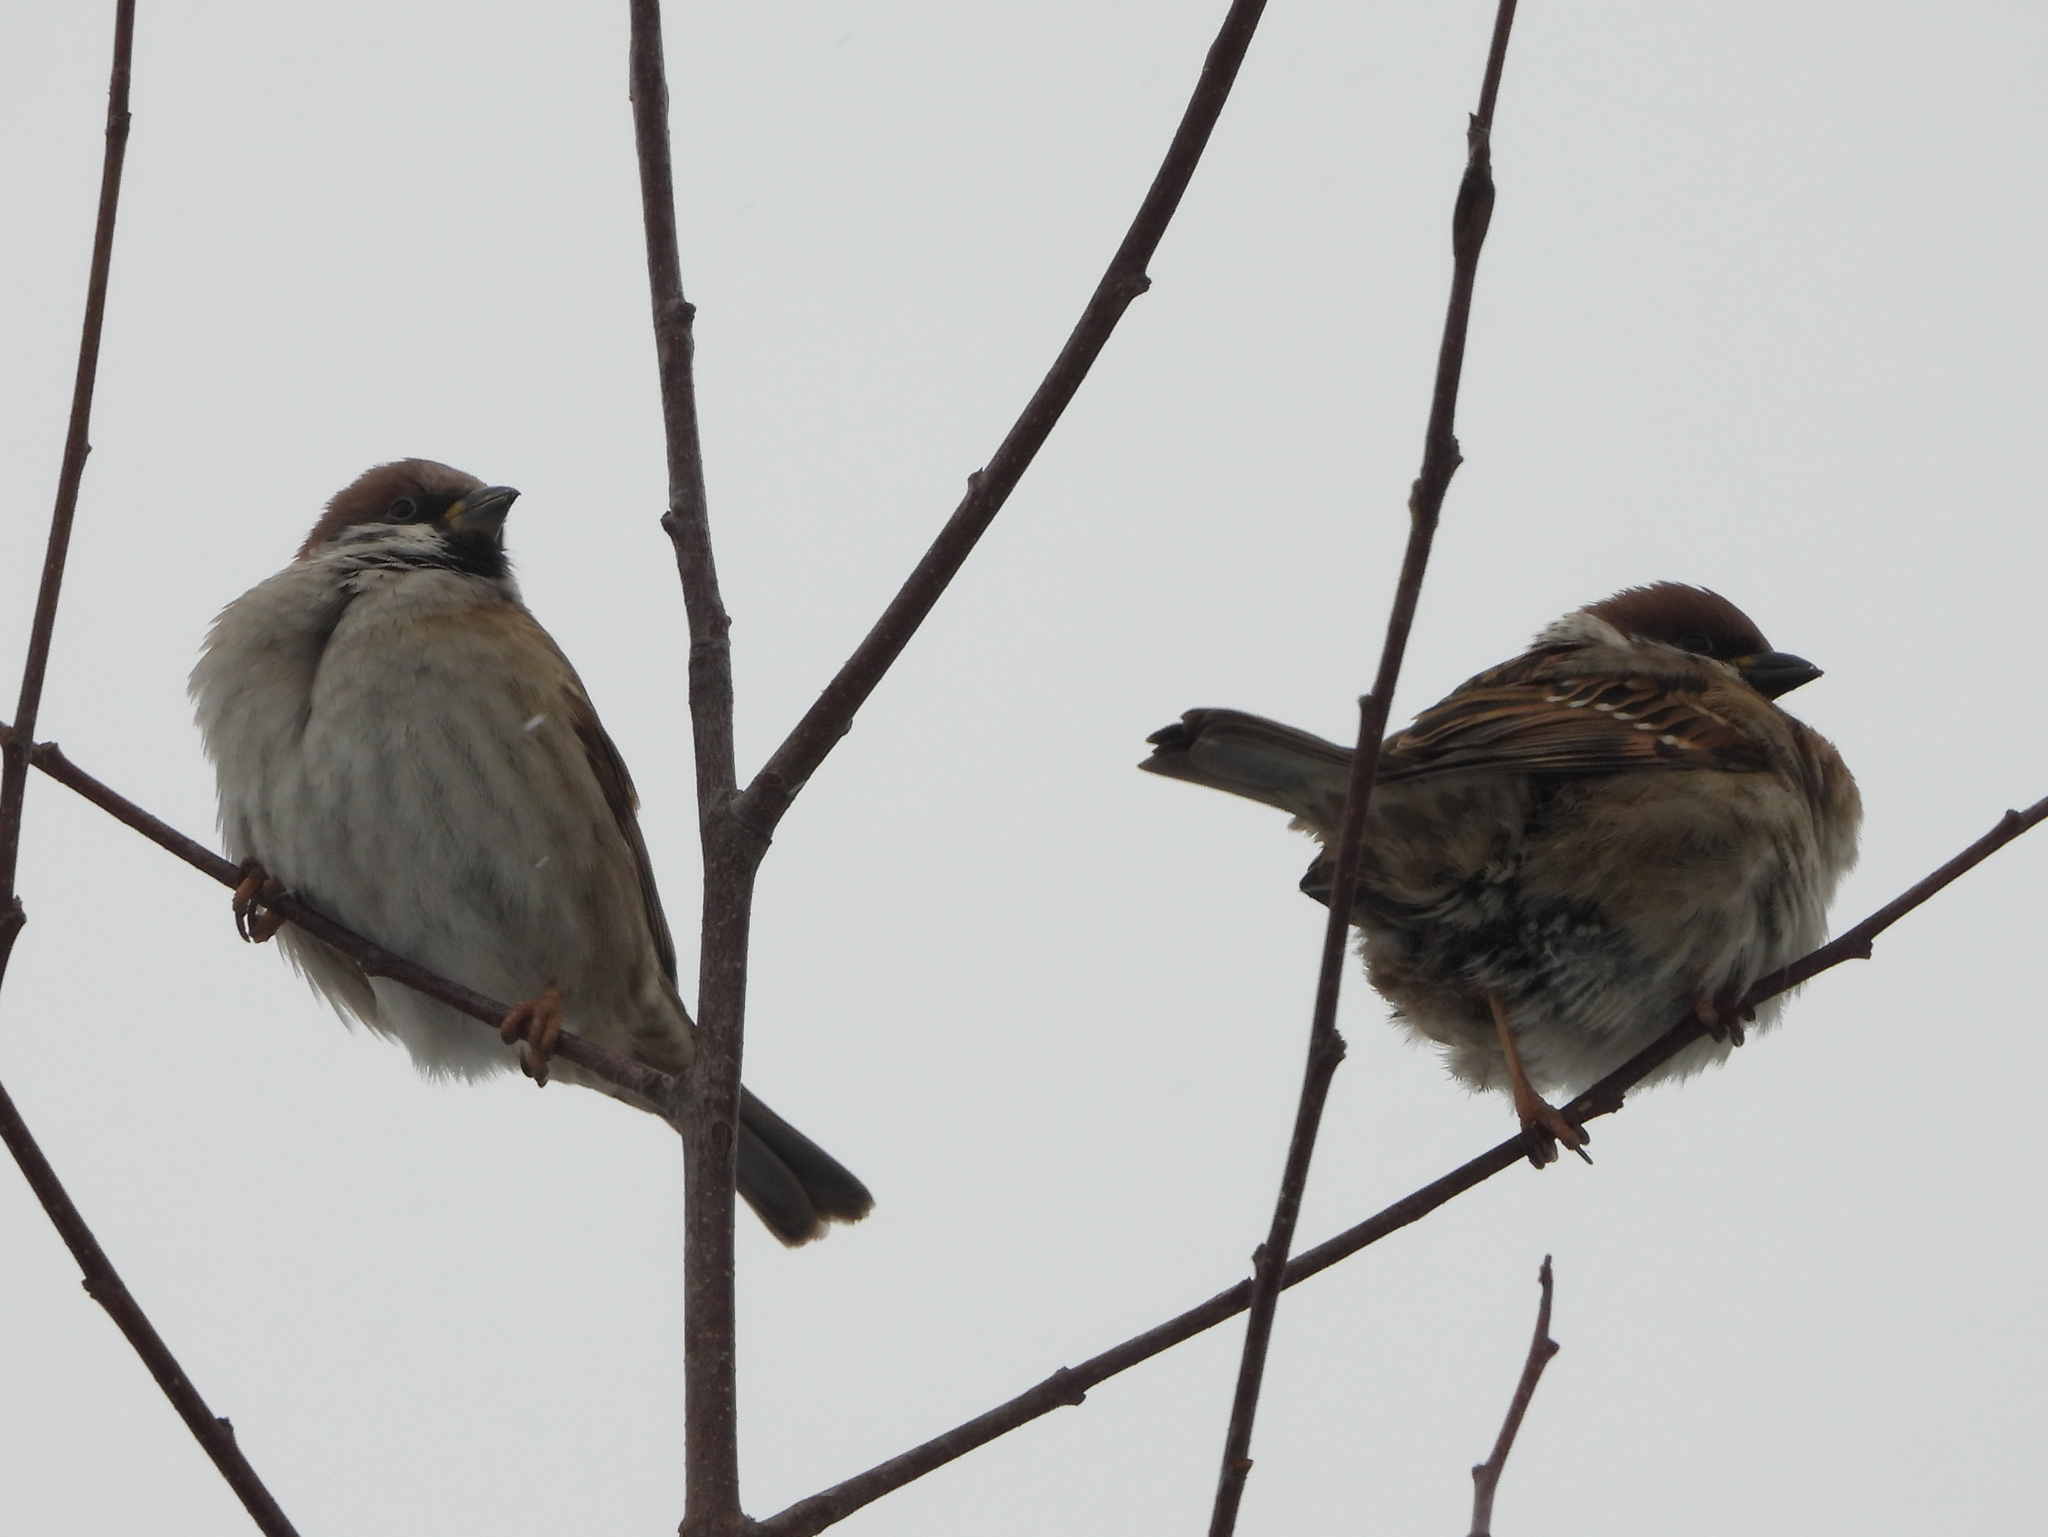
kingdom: Animalia
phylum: Chordata
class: Aves
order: Passeriformes
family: Passeridae
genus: Passer
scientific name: Passer montanus
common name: Eurasian tree sparrow
